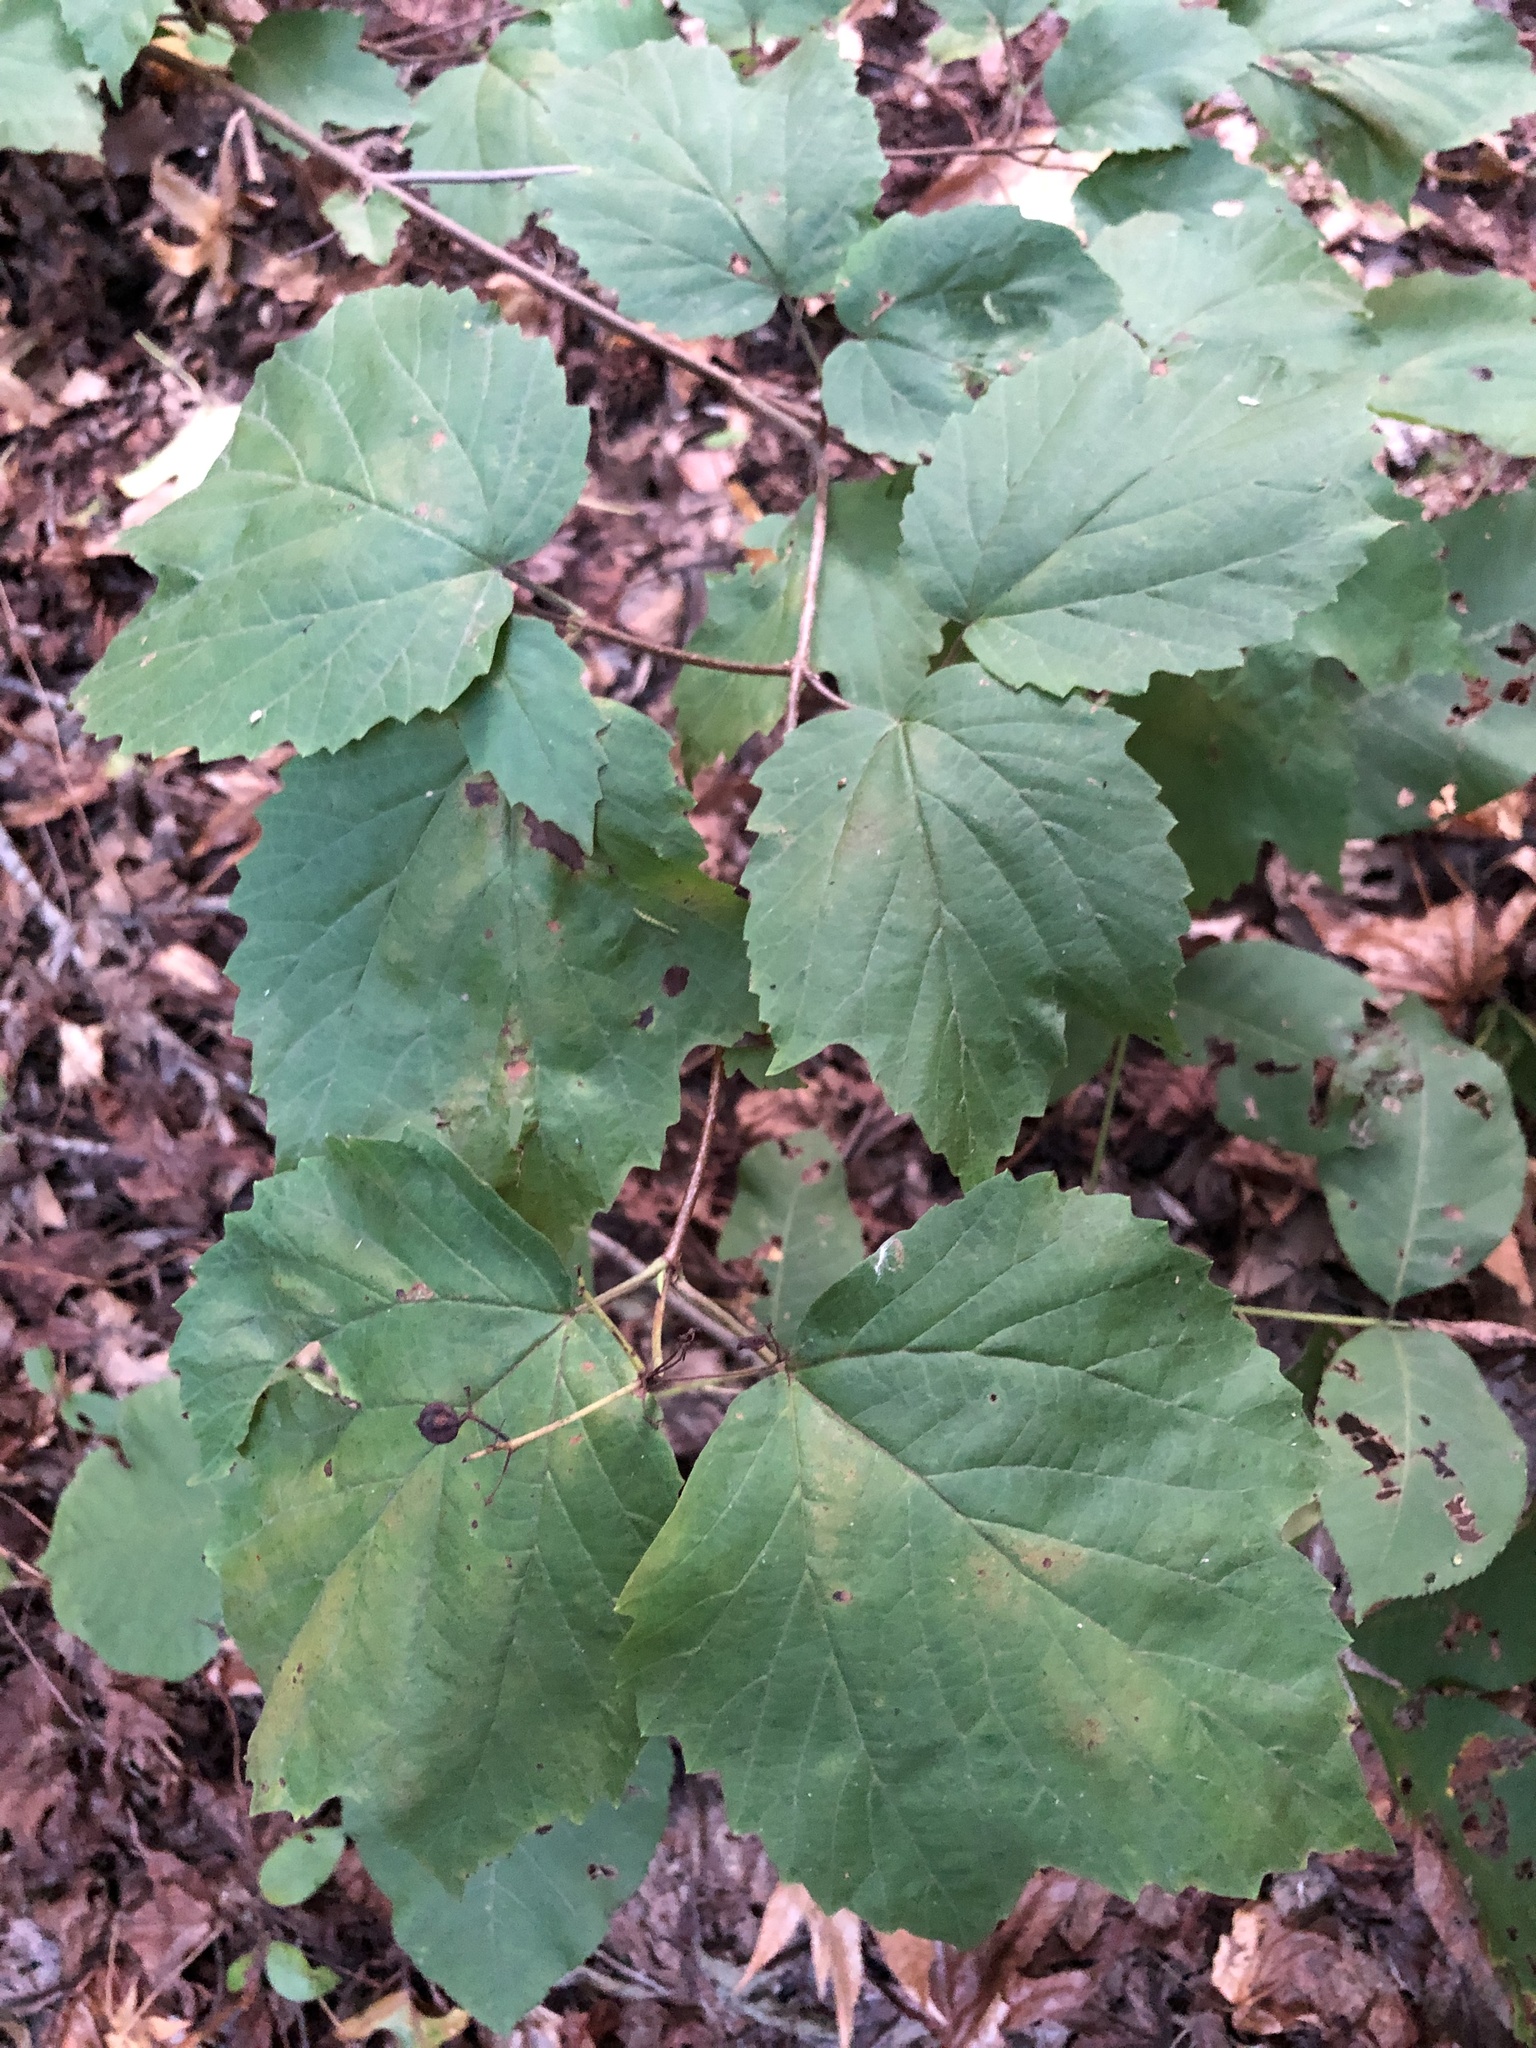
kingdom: Plantae
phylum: Tracheophyta
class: Magnoliopsida
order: Dipsacales
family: Viburnaceae
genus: Viburnum
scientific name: Viburnum acerifolium
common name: Dockmackie
